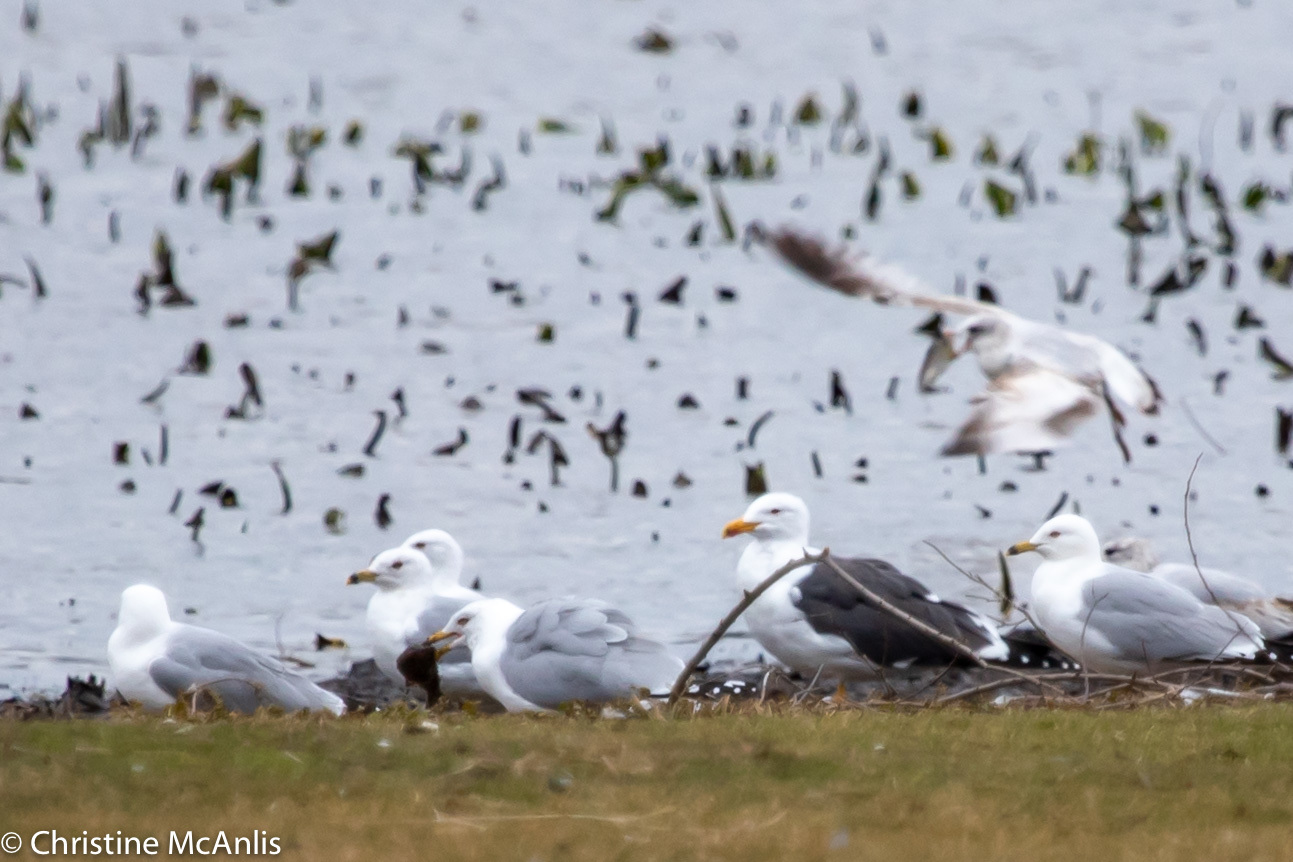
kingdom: Animalia
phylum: Chordata
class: Aves
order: Charadriiformes
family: Laridae
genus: Larus
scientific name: Larus fuscus
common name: Lesser black-backed gull
